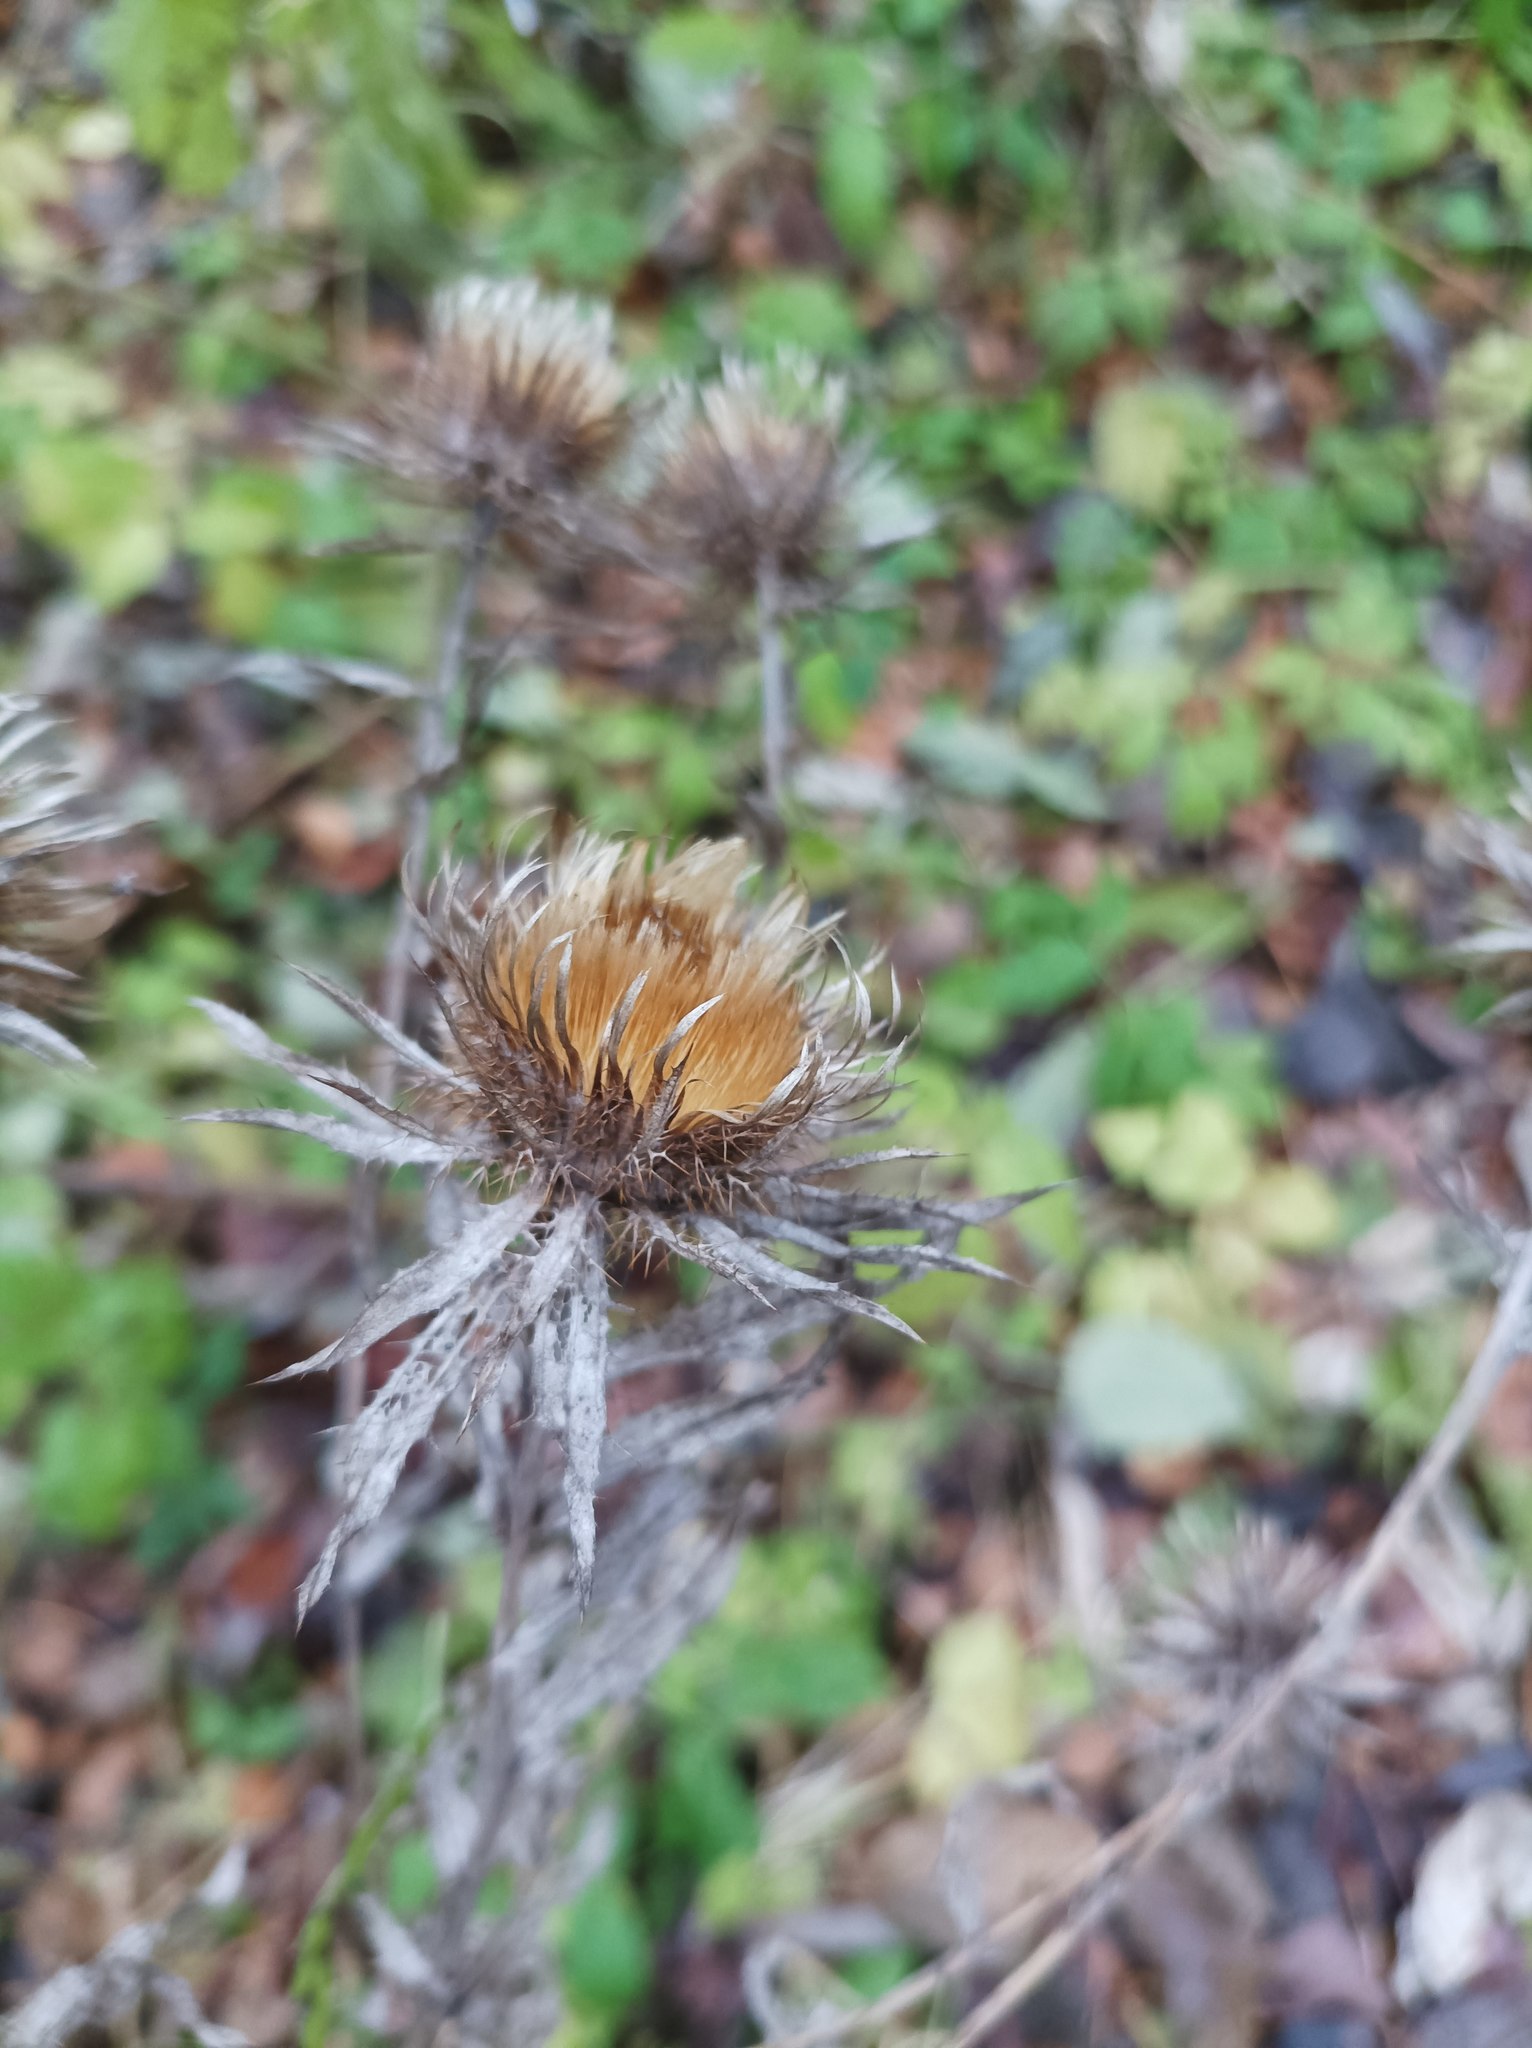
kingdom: Plantae
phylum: Tracheophyta
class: Magnoliopsida
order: Asterales
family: Asteraceae
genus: Carlina
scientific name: Carlina biebersteinii
